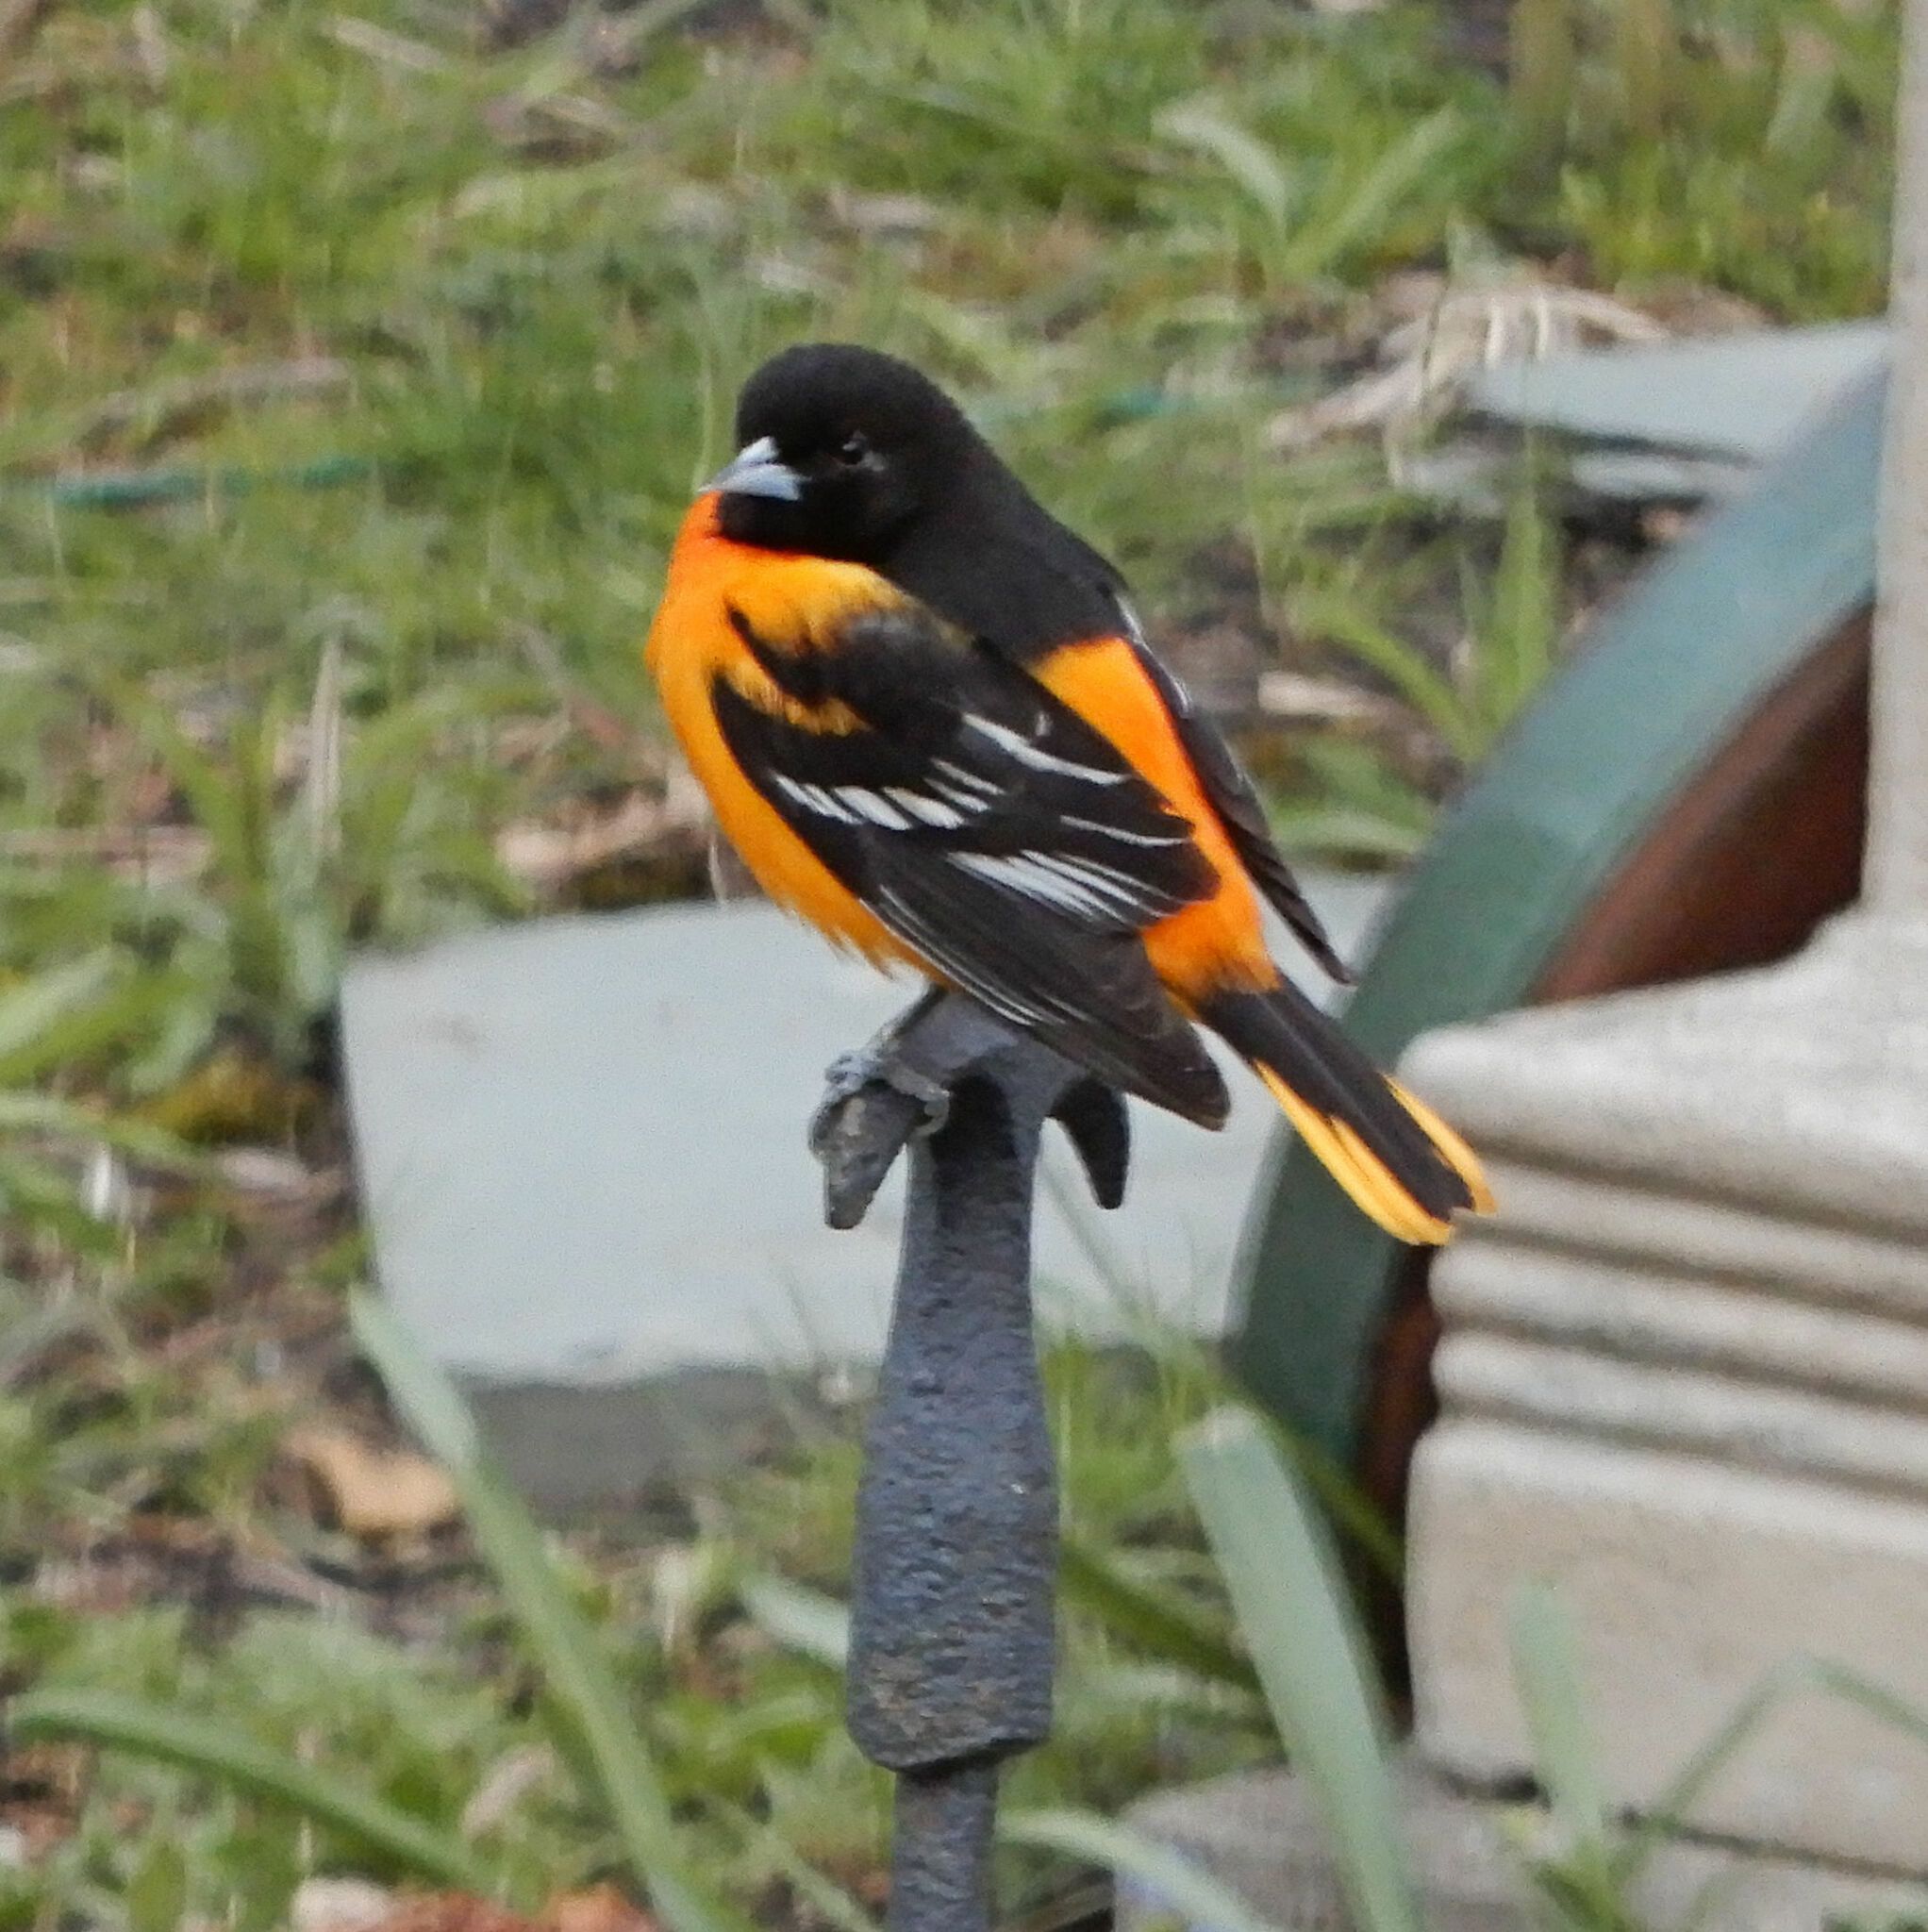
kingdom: Animalia
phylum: Chordata
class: Aves
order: Passeriformes
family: Icteridae
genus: Icterus
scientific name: Icterus galbula
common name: Baltimore oriole
